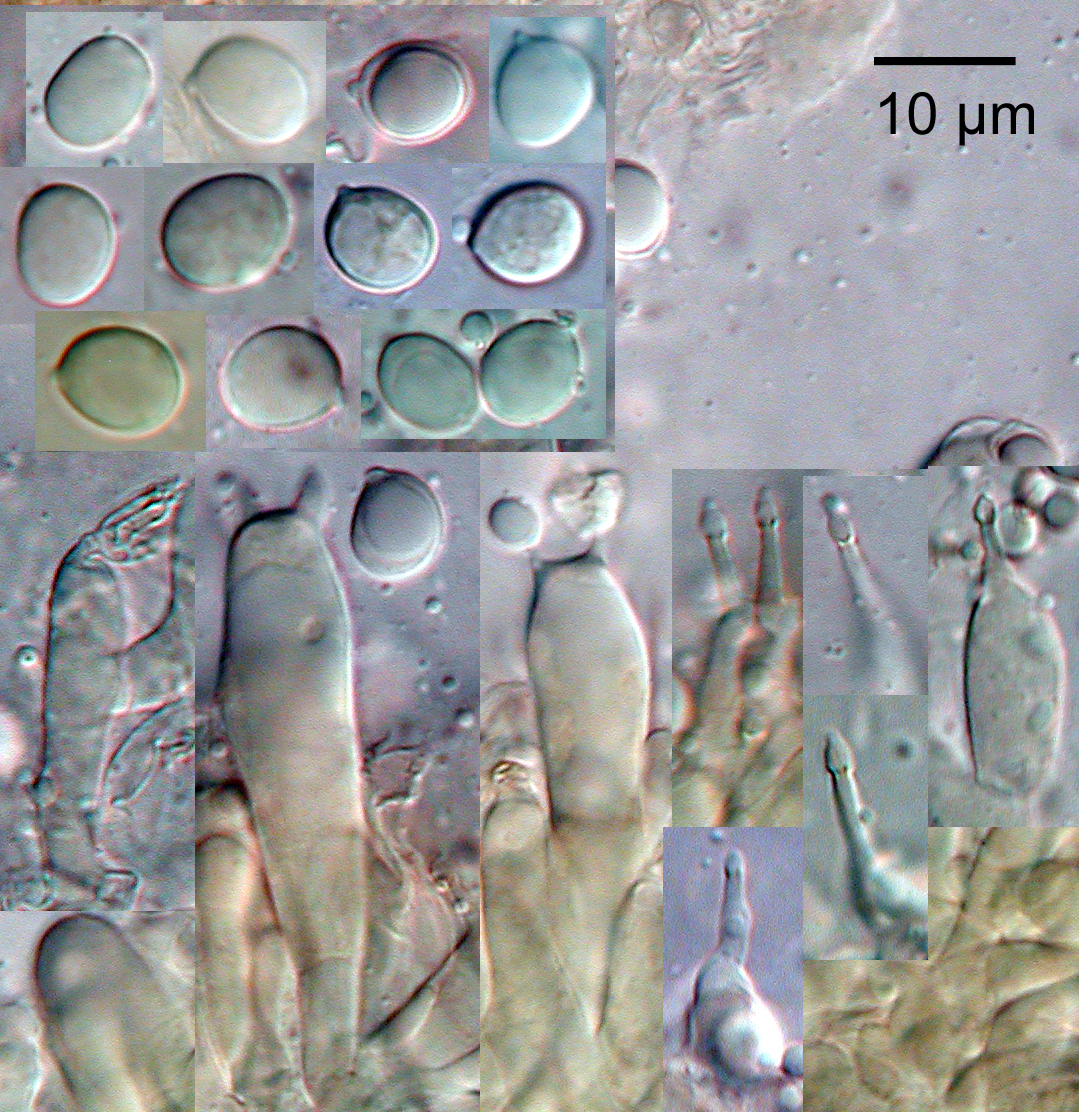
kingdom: Fungi
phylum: Basidiomycota
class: Agaricomycetes
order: Agaricales
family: Pleurotaceae
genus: Hohenbuehelia
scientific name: Hohenbuehelia
